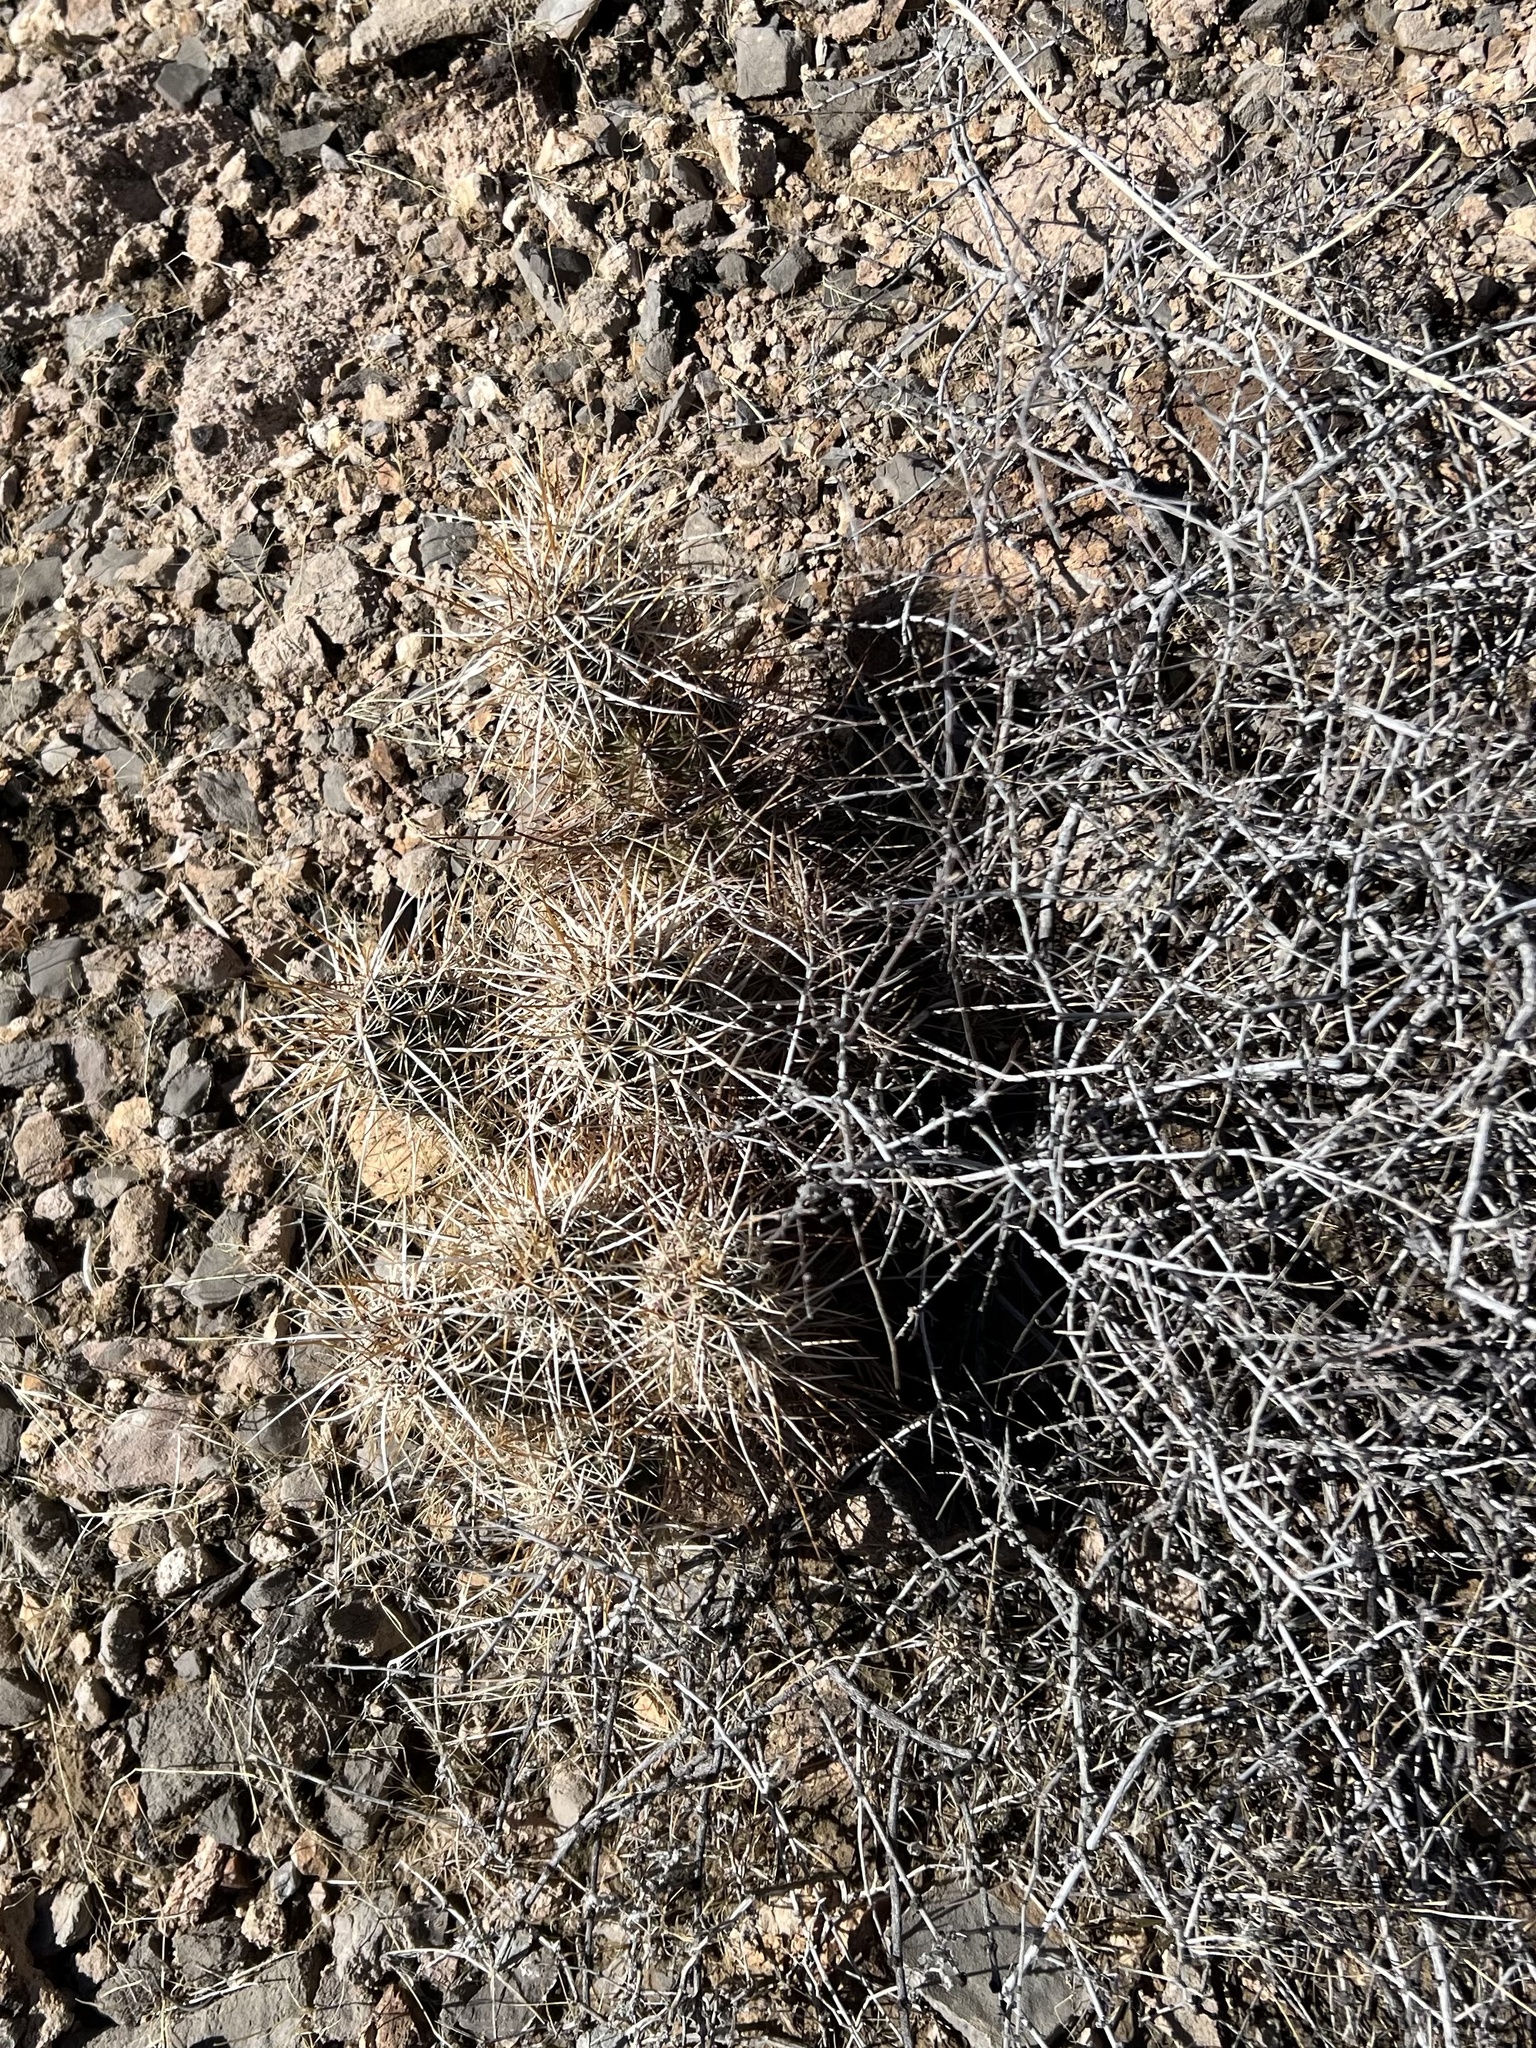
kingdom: Plantae
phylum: Tracheophyta
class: Magnoliopsida
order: Caryophyllales
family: Cactaceae
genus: Echinocereus
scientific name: Echinocereus engelmannii
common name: Engelmann's hedgehog cactus
